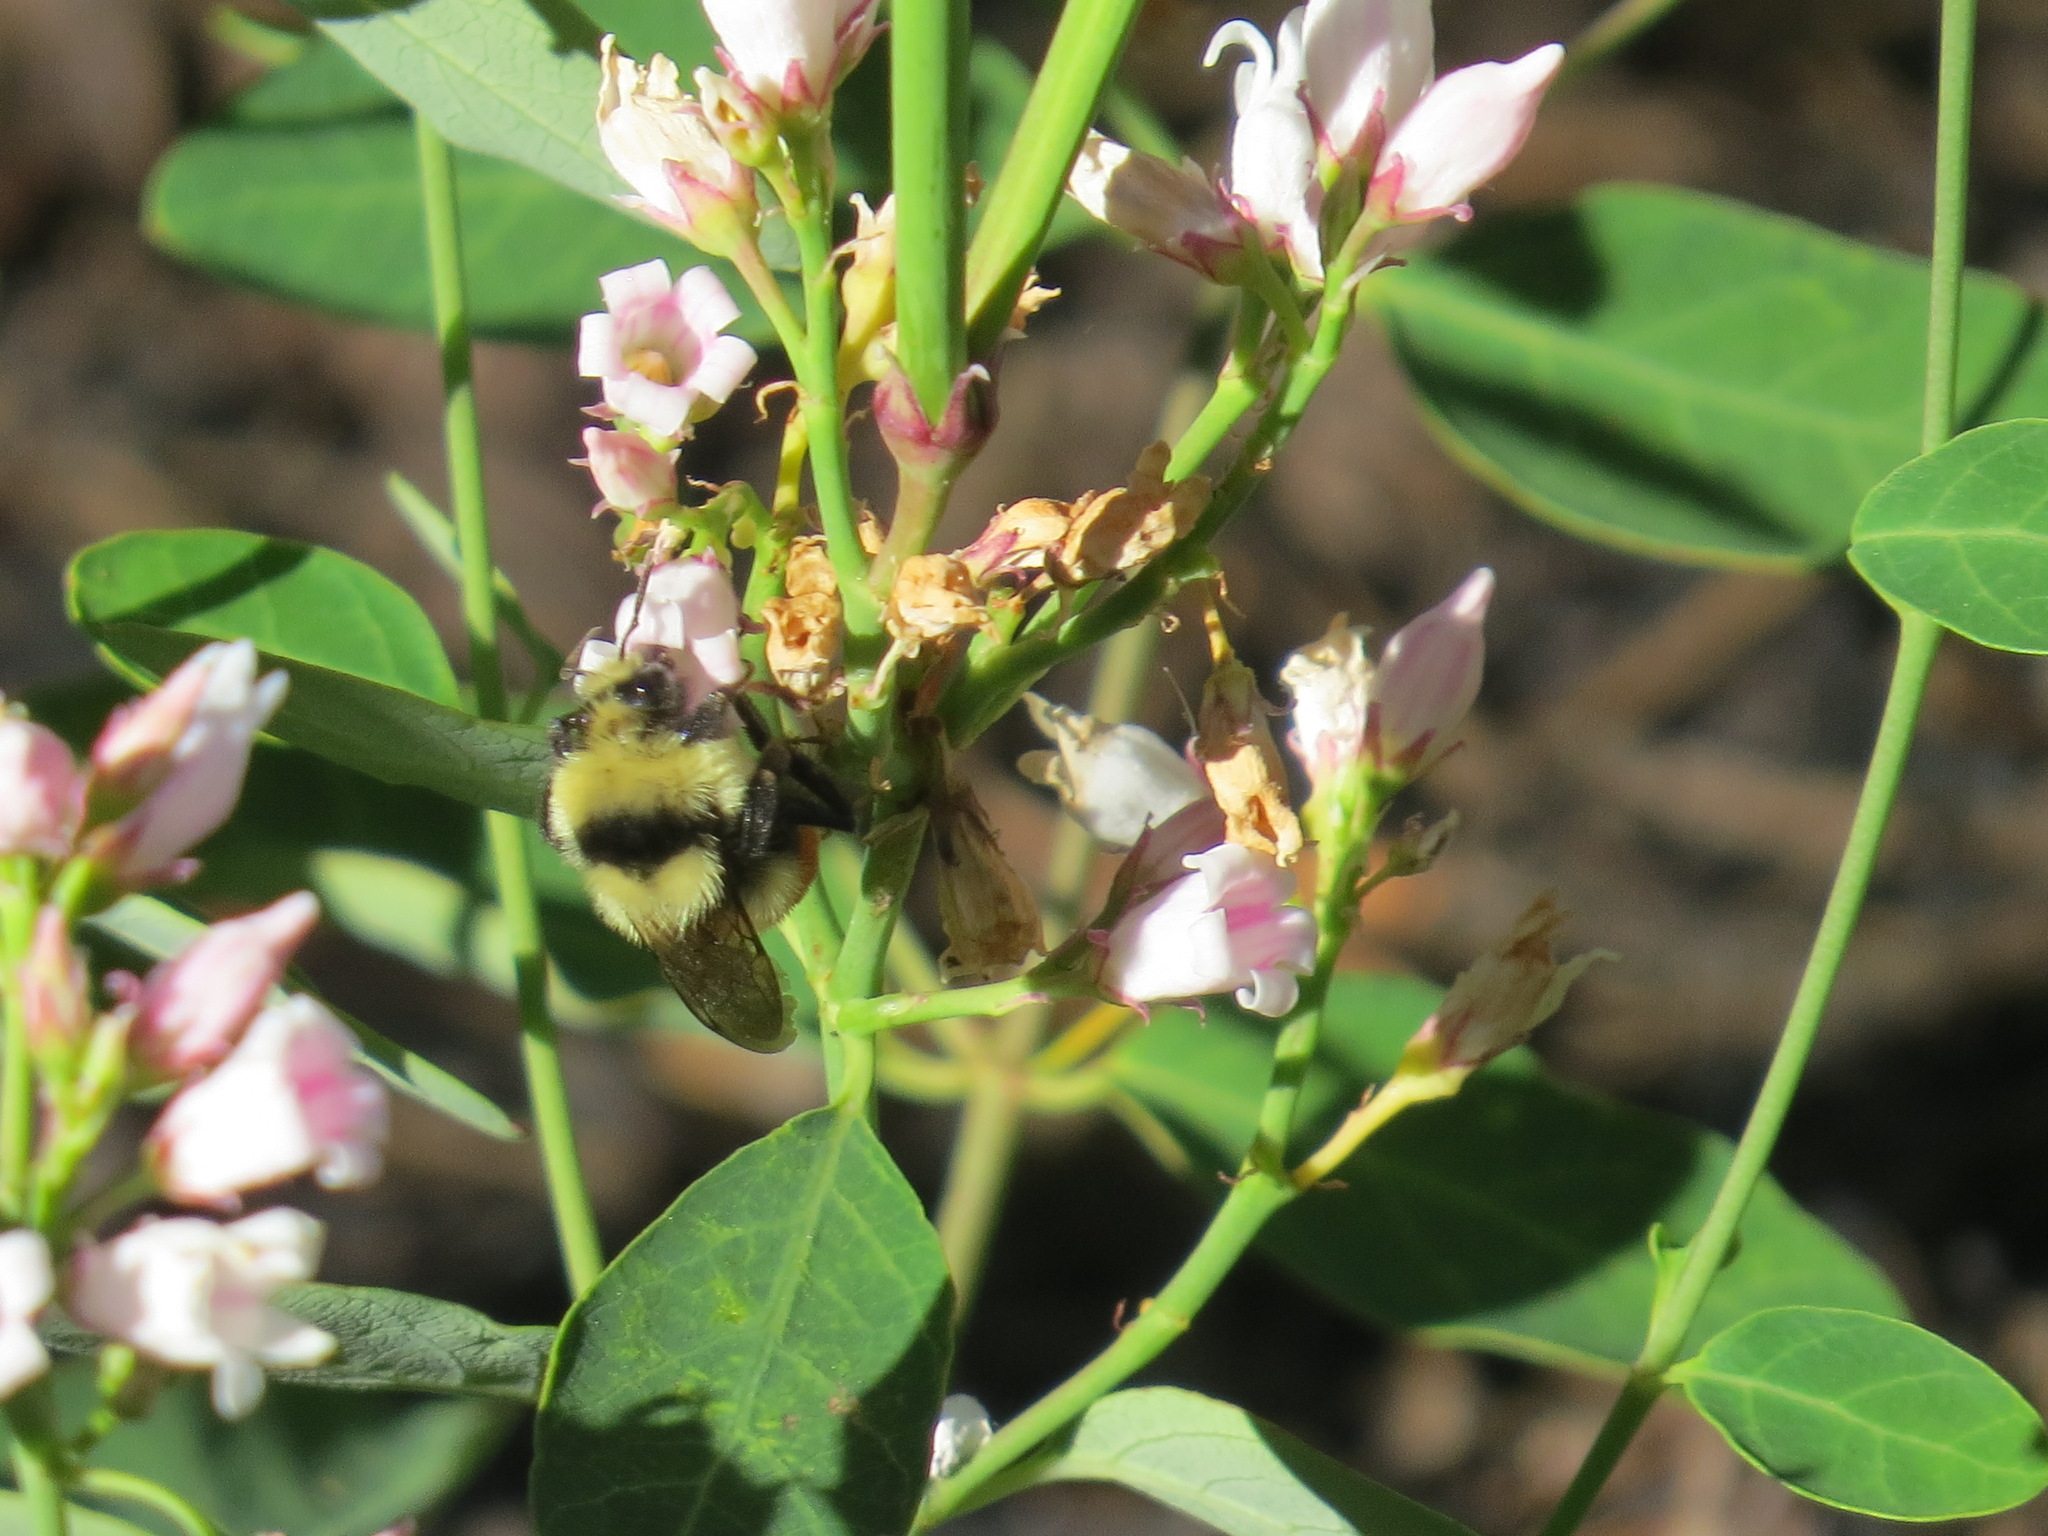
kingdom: Animalia
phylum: Arthropoda
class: Insecta
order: Hymenoptera
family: Apidae
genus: Bombus
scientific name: Bombus huntii
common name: Hunt bumble bee
